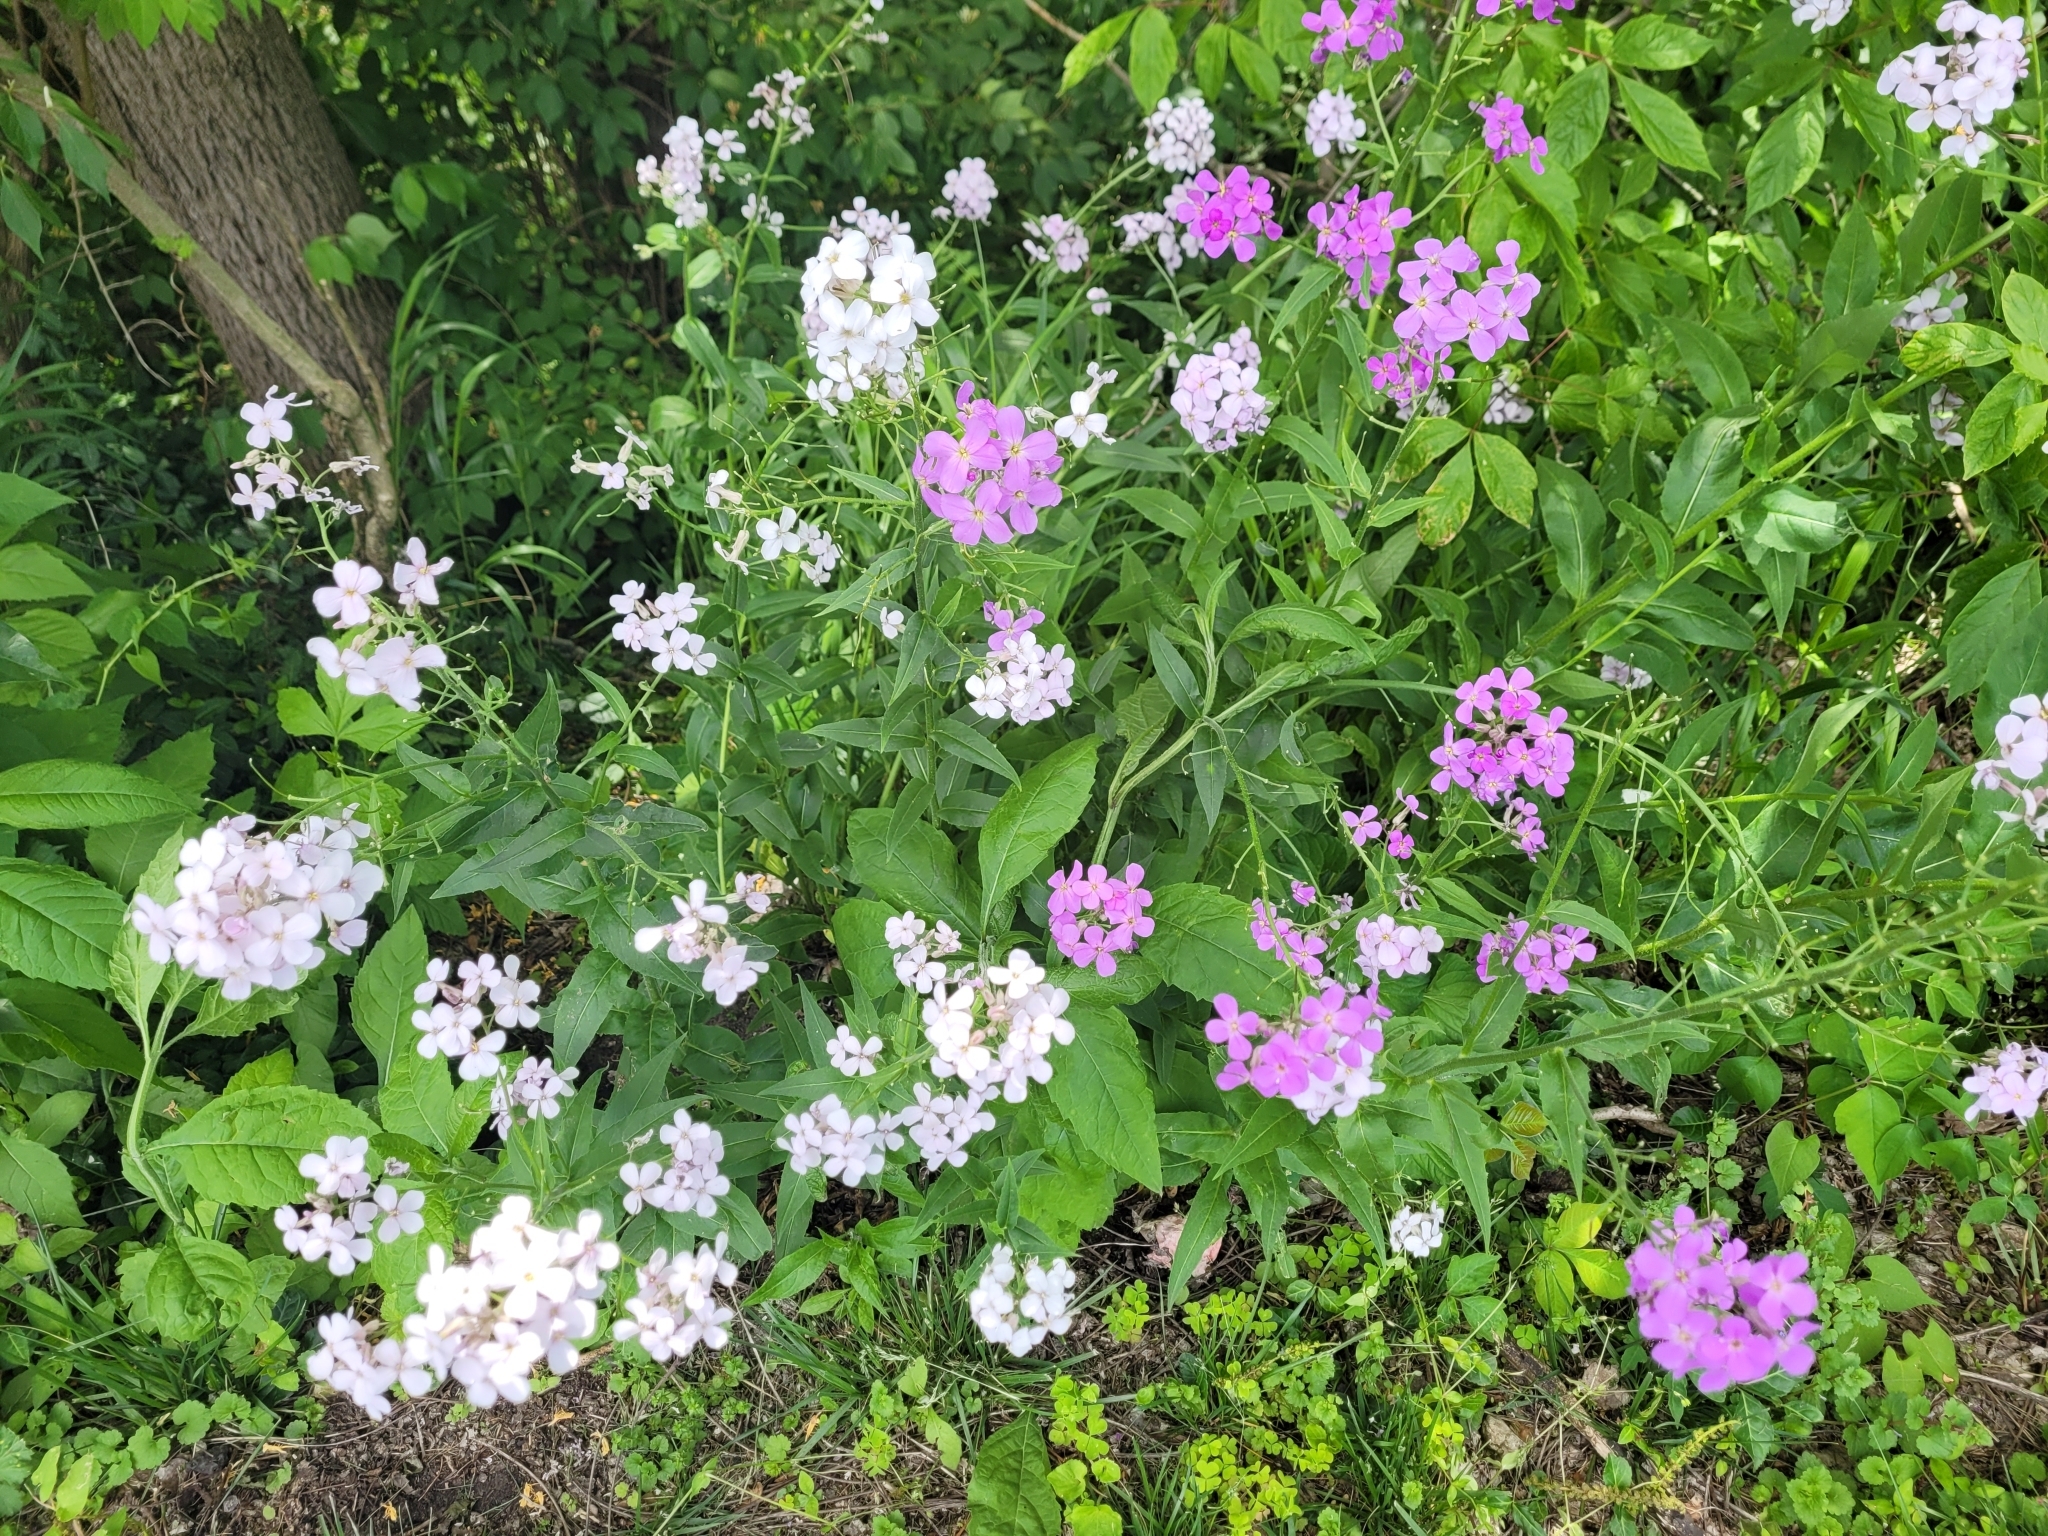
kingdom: Plantae
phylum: Tracheophyta
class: Magnoliopsida
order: Brassicales
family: Brassicaceae
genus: Hesperis
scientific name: Hesperis matronalis
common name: Dame's-violet
